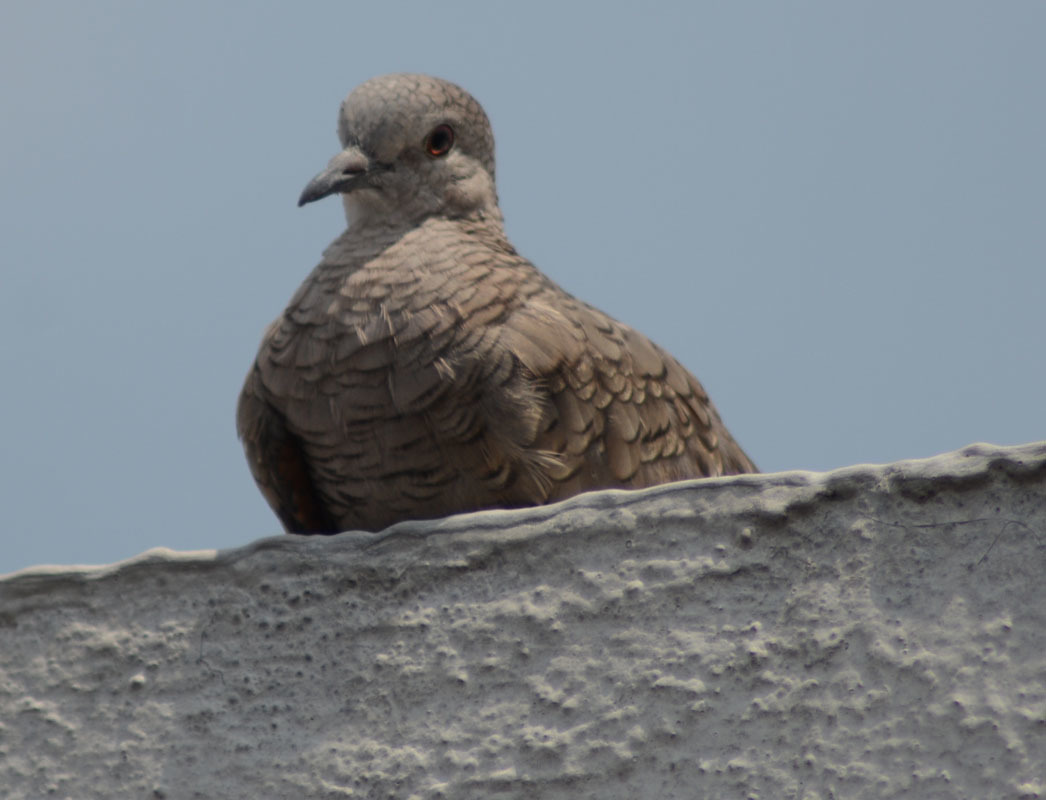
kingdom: Animalia
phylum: Chordata
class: Aves
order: Columbiformes
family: Columbidae
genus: Columbina
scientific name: Columbina inca
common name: Inca dove
